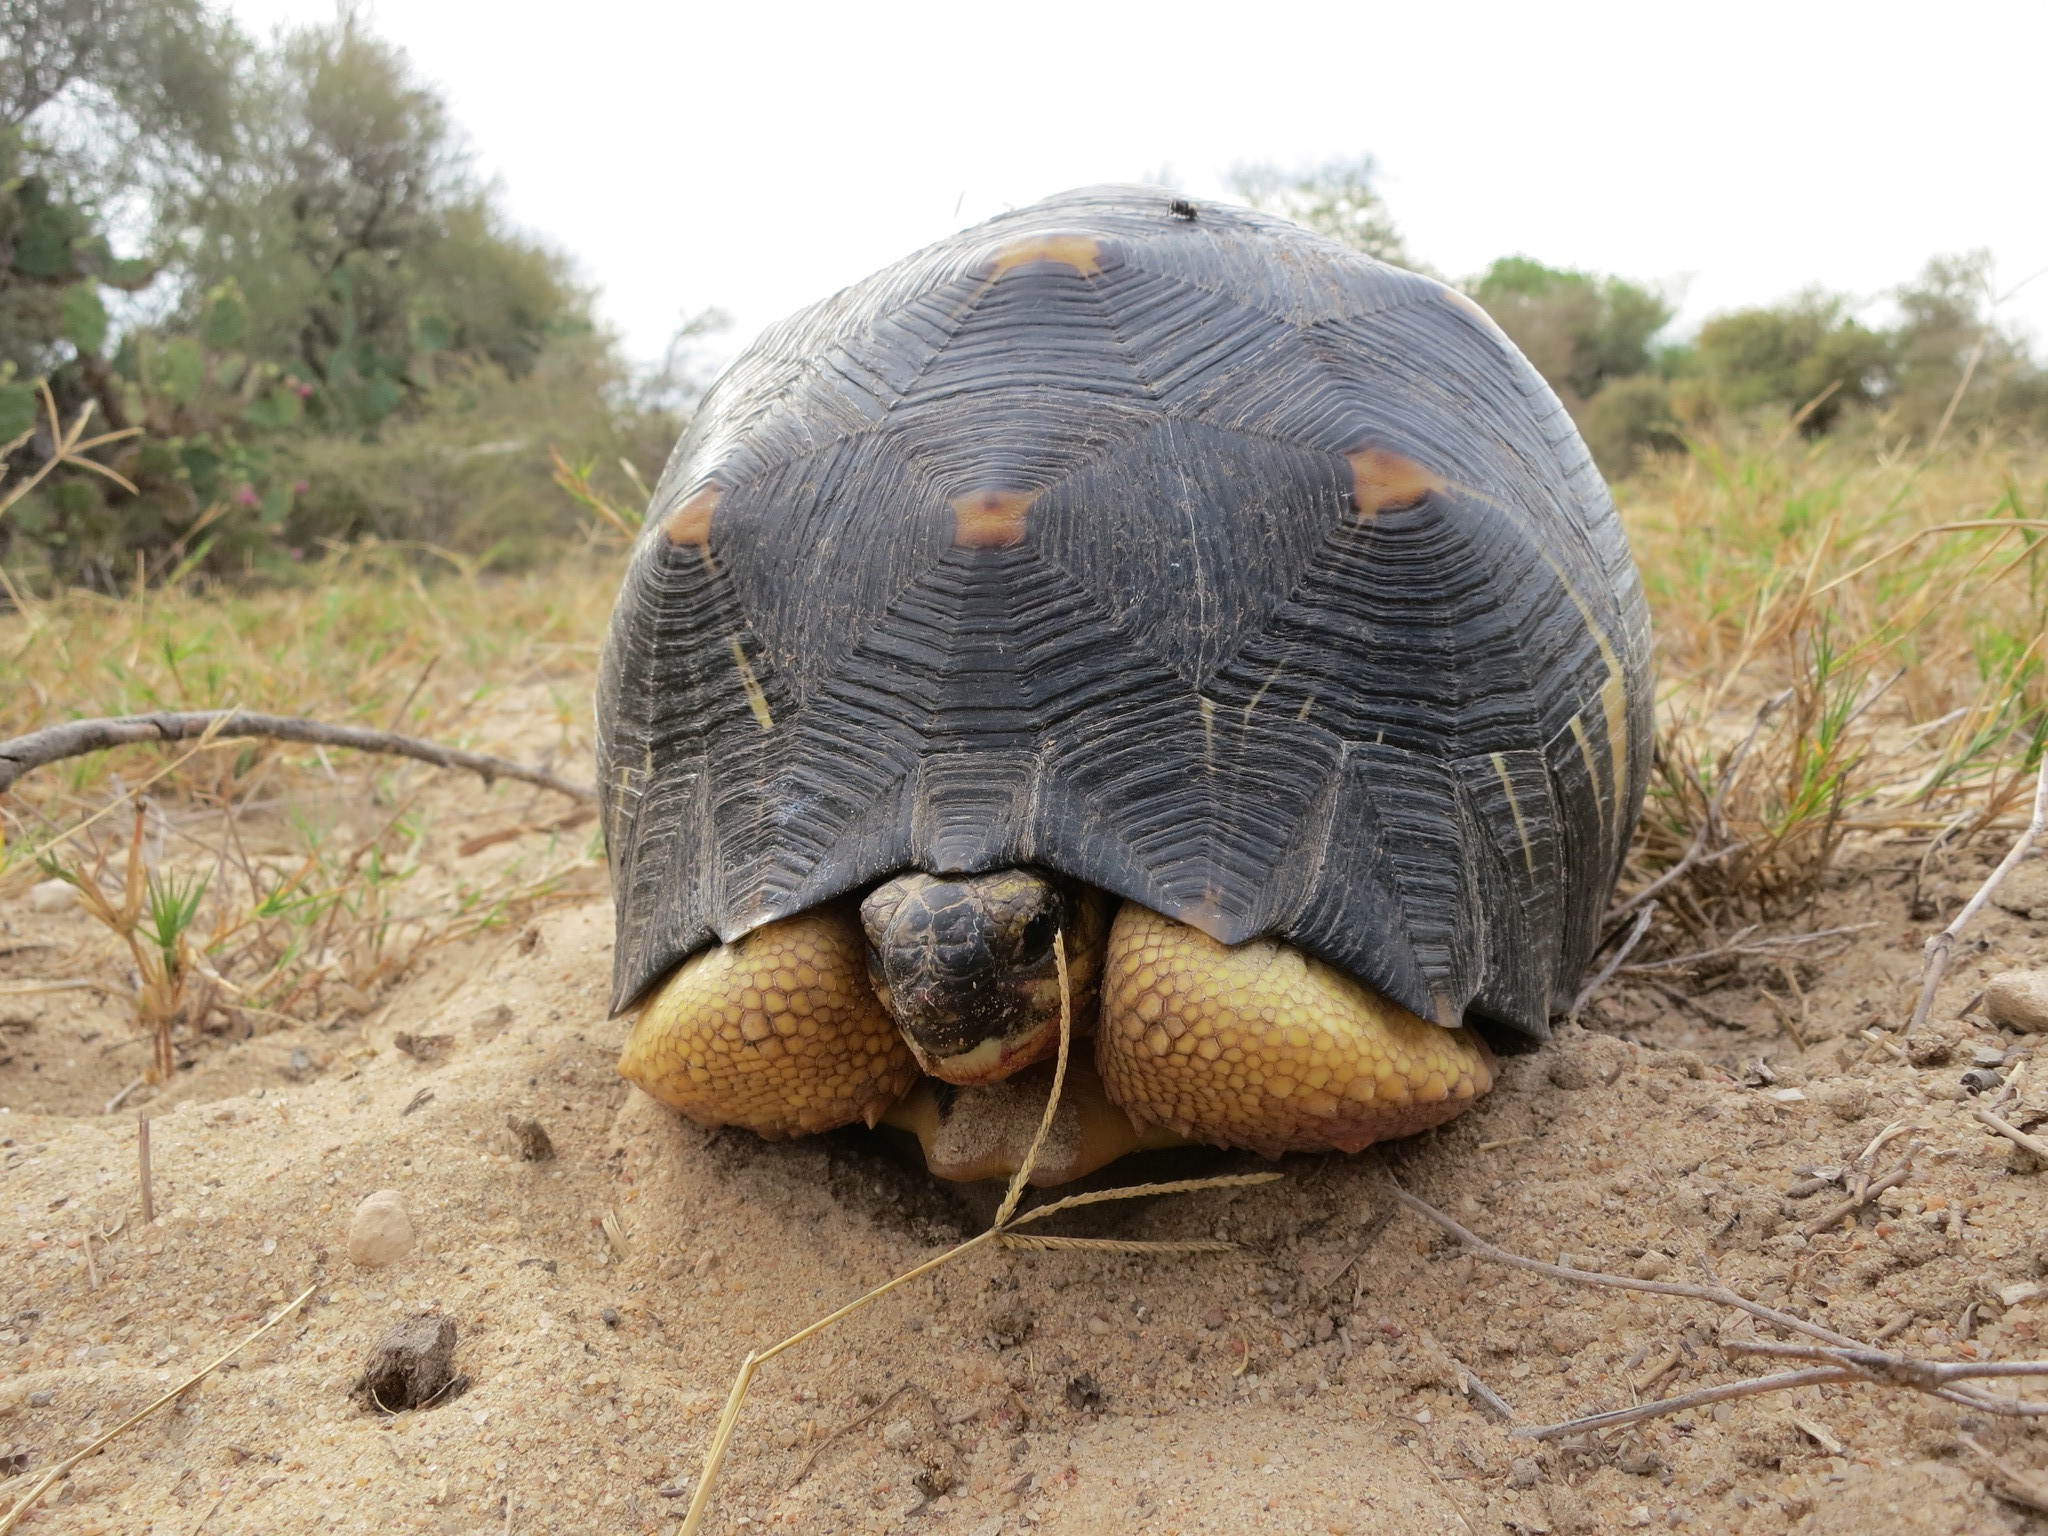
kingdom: Animalia
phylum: Chordata
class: Testudines
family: Testudinidae
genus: Astrochelys
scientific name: Astrochelys radiata
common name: Radiated tortoise
